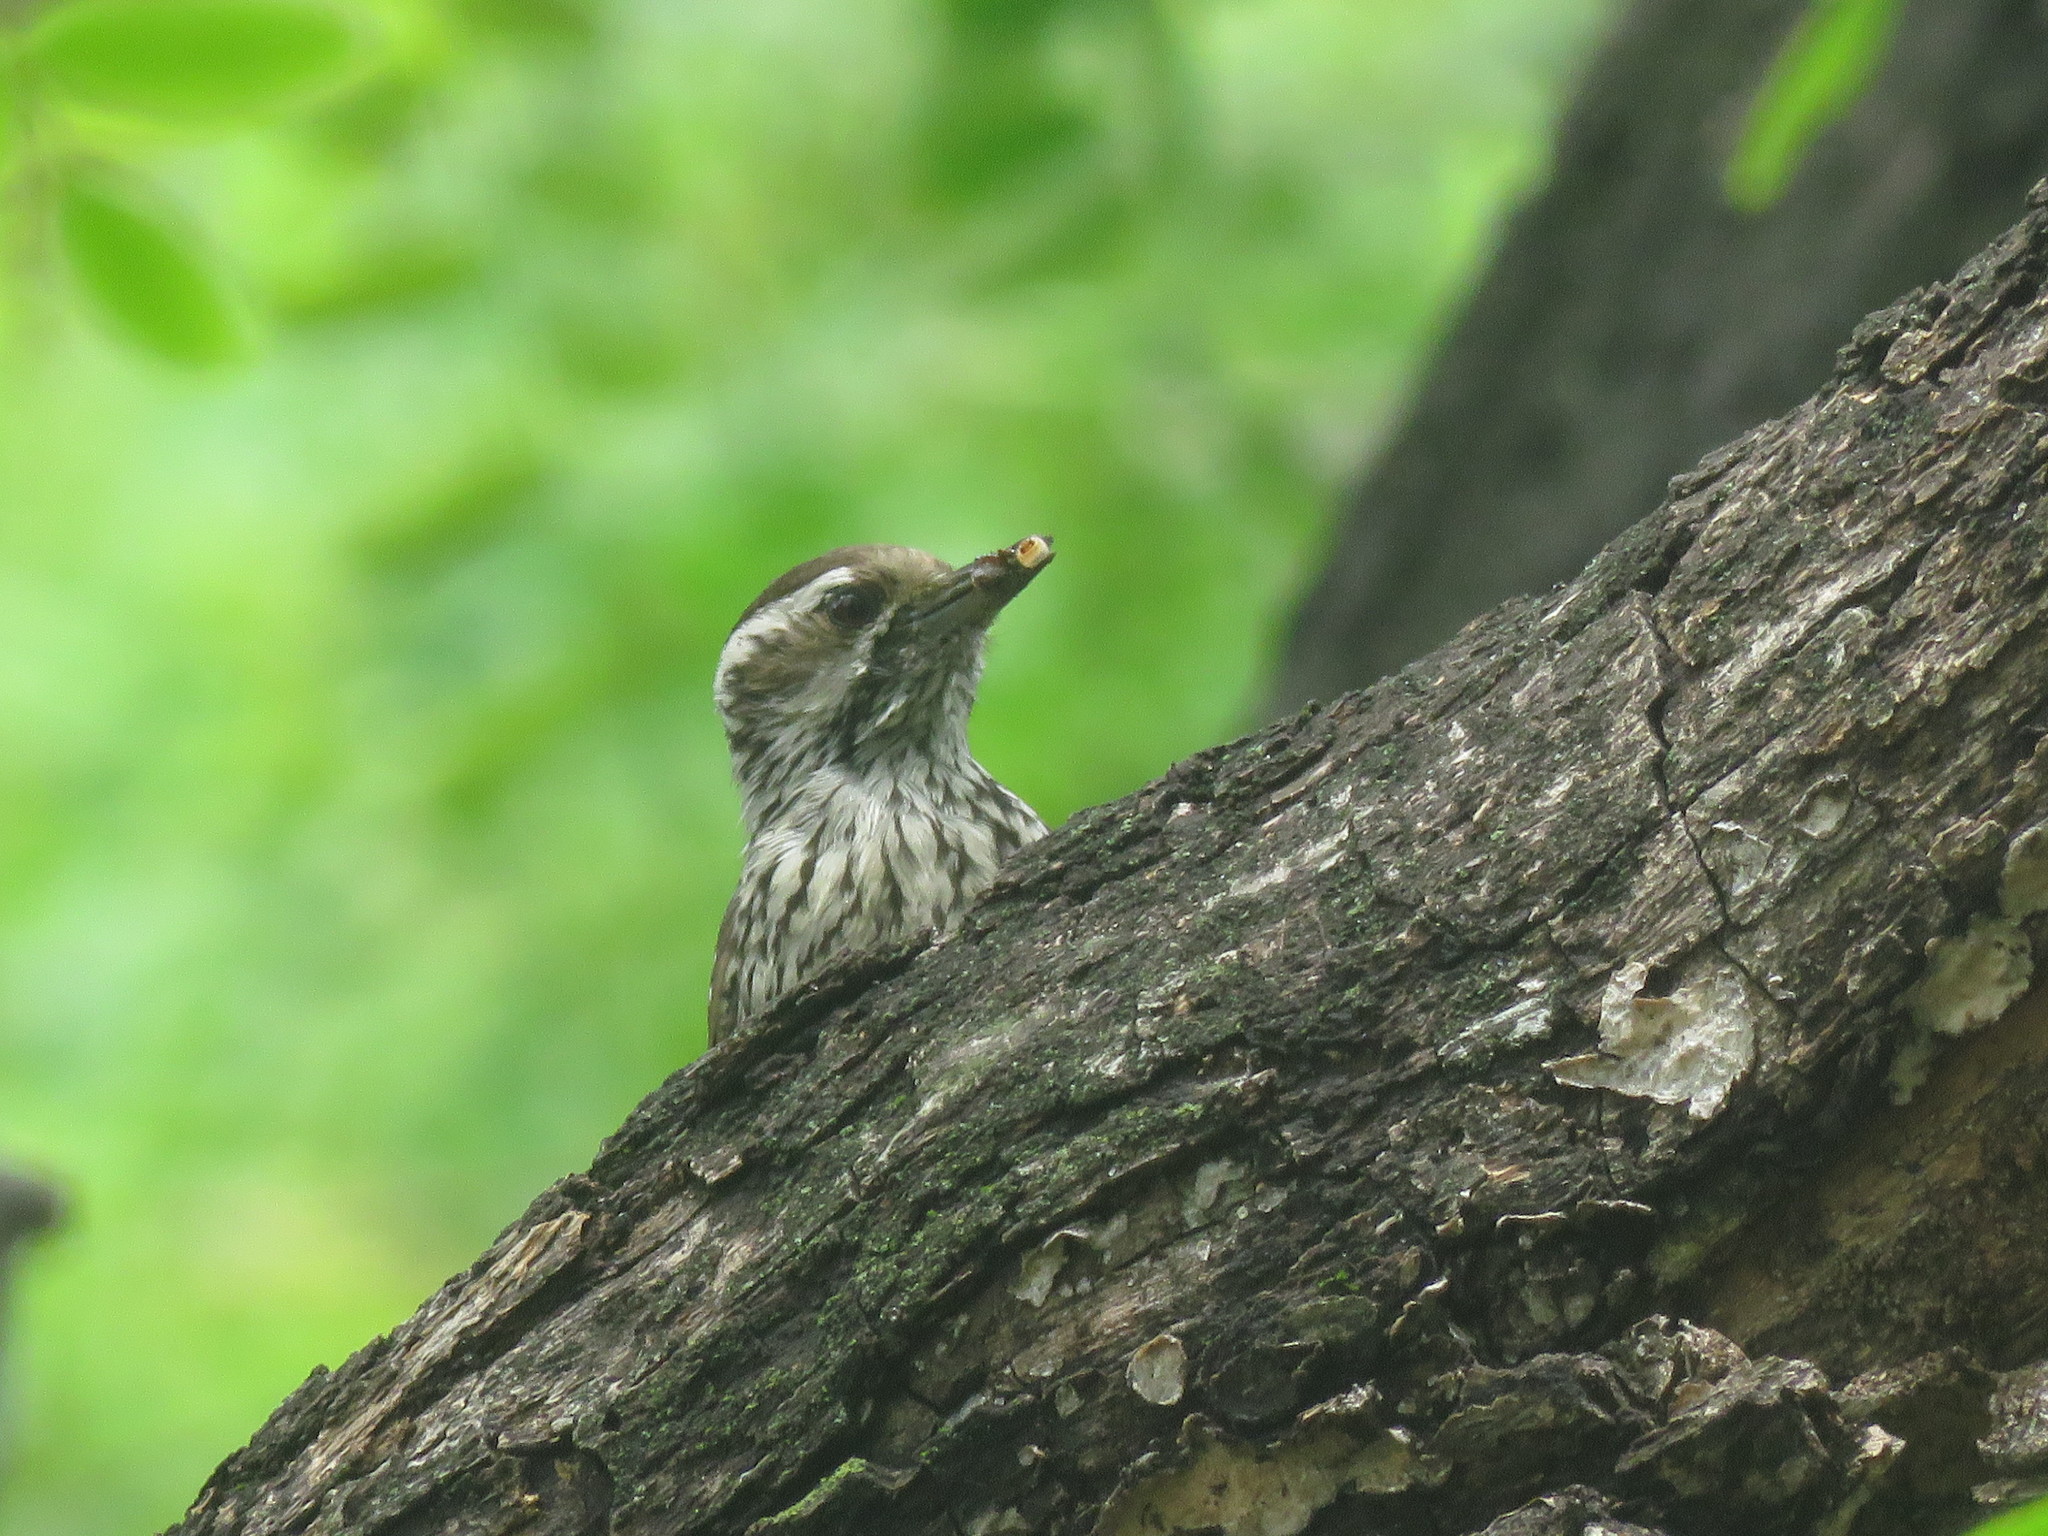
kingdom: Animalia
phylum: Chordata
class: Aves
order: Piciformes
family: Picidae
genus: Veniliornis
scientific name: Veniliornis mixtus
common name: Checkered woodpecker
